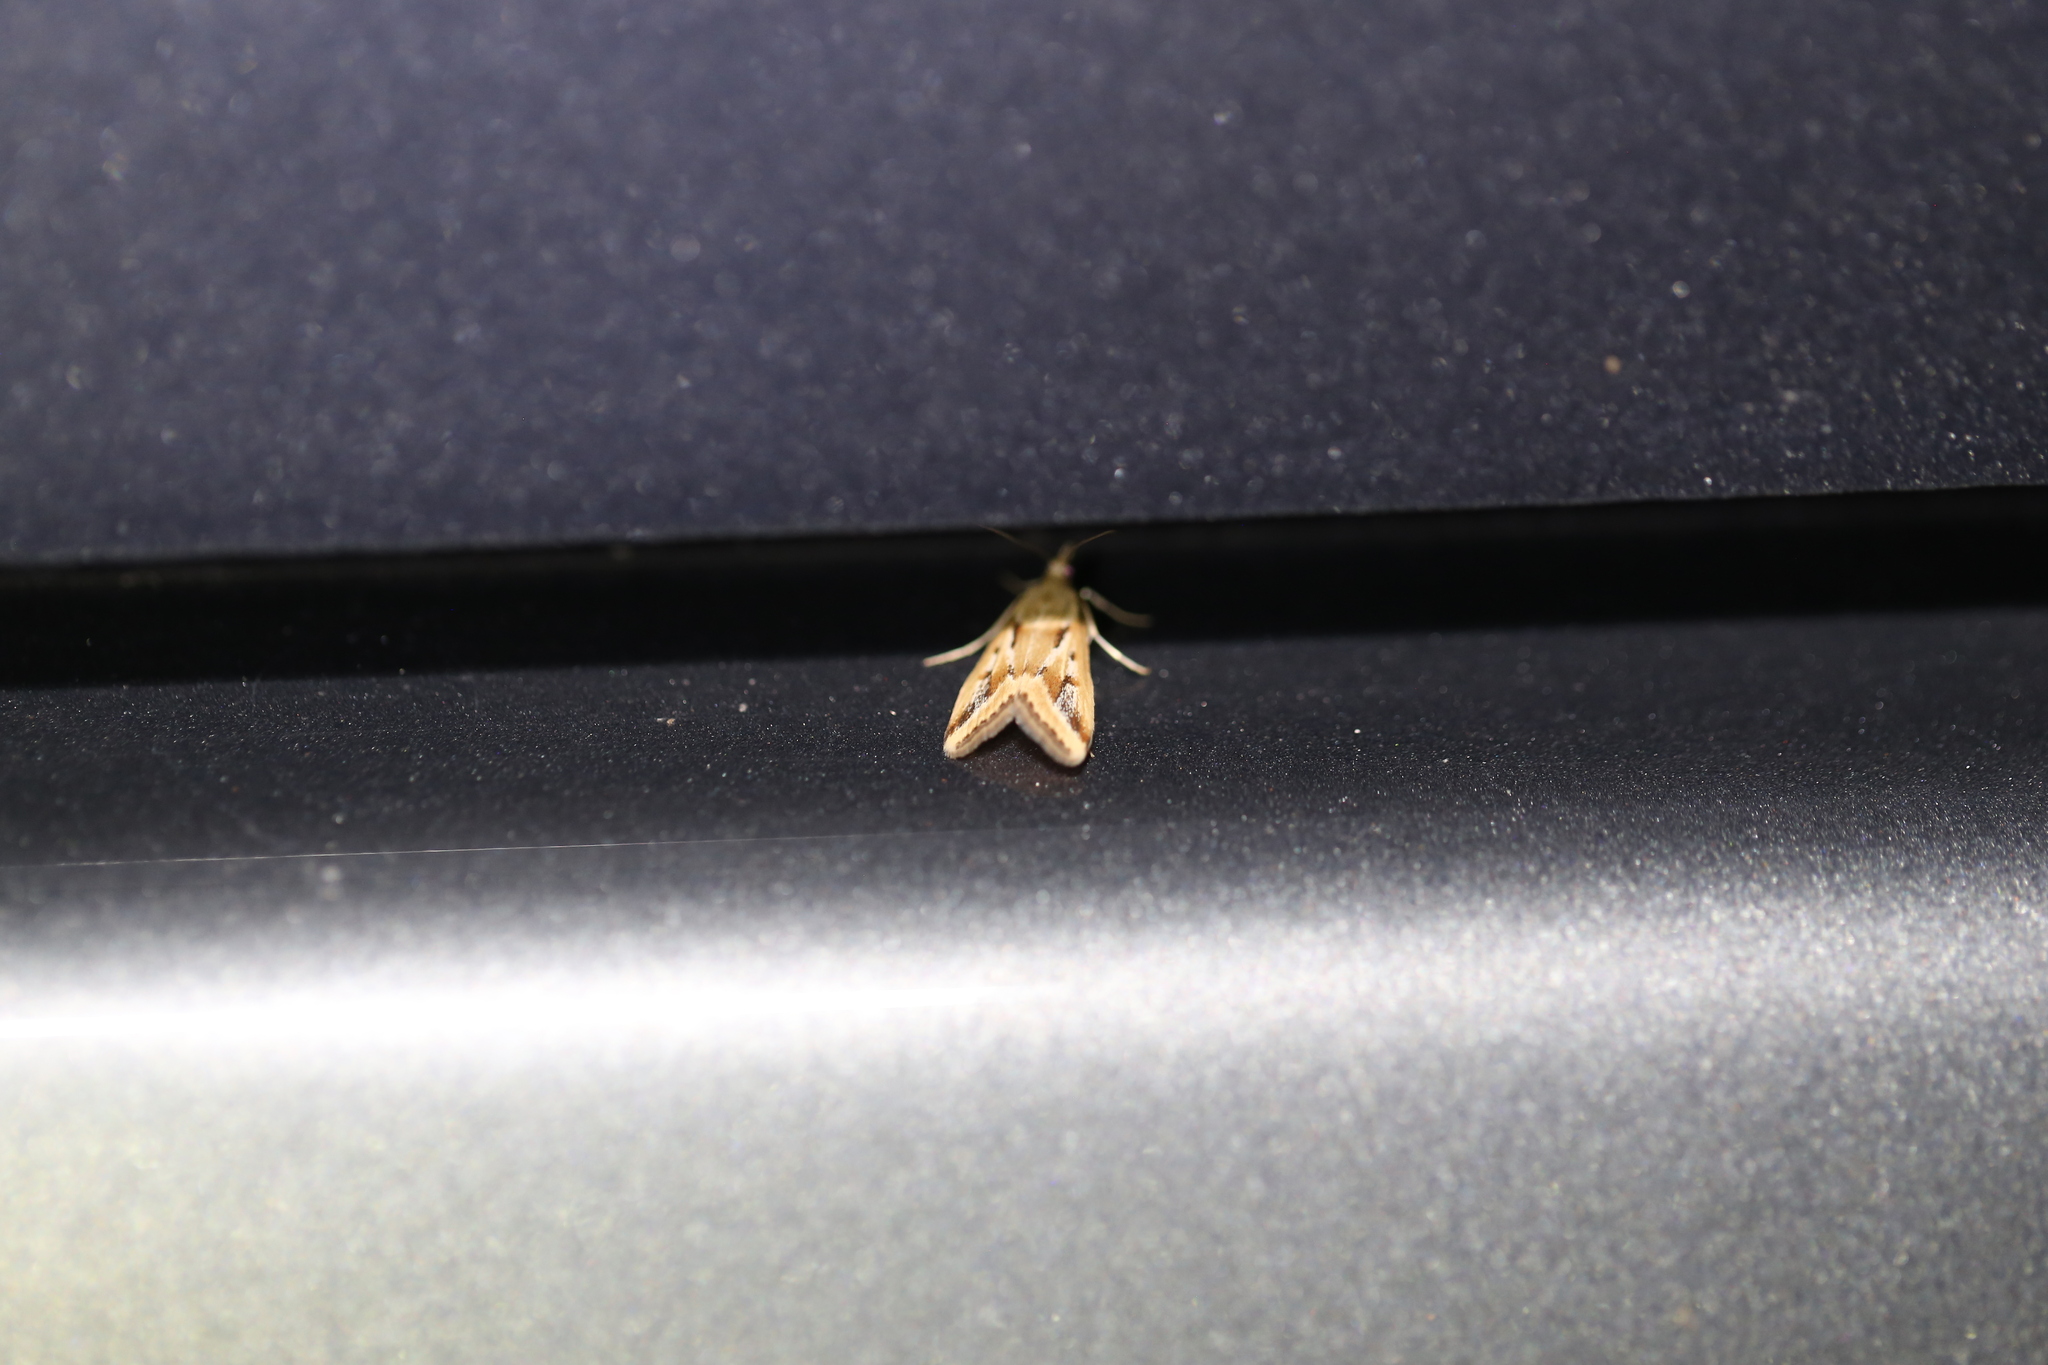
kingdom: Animalia
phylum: Arthropoda
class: Insecta
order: Lepidoptera
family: Crambidae
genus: Achyra
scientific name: Achyra massalis
